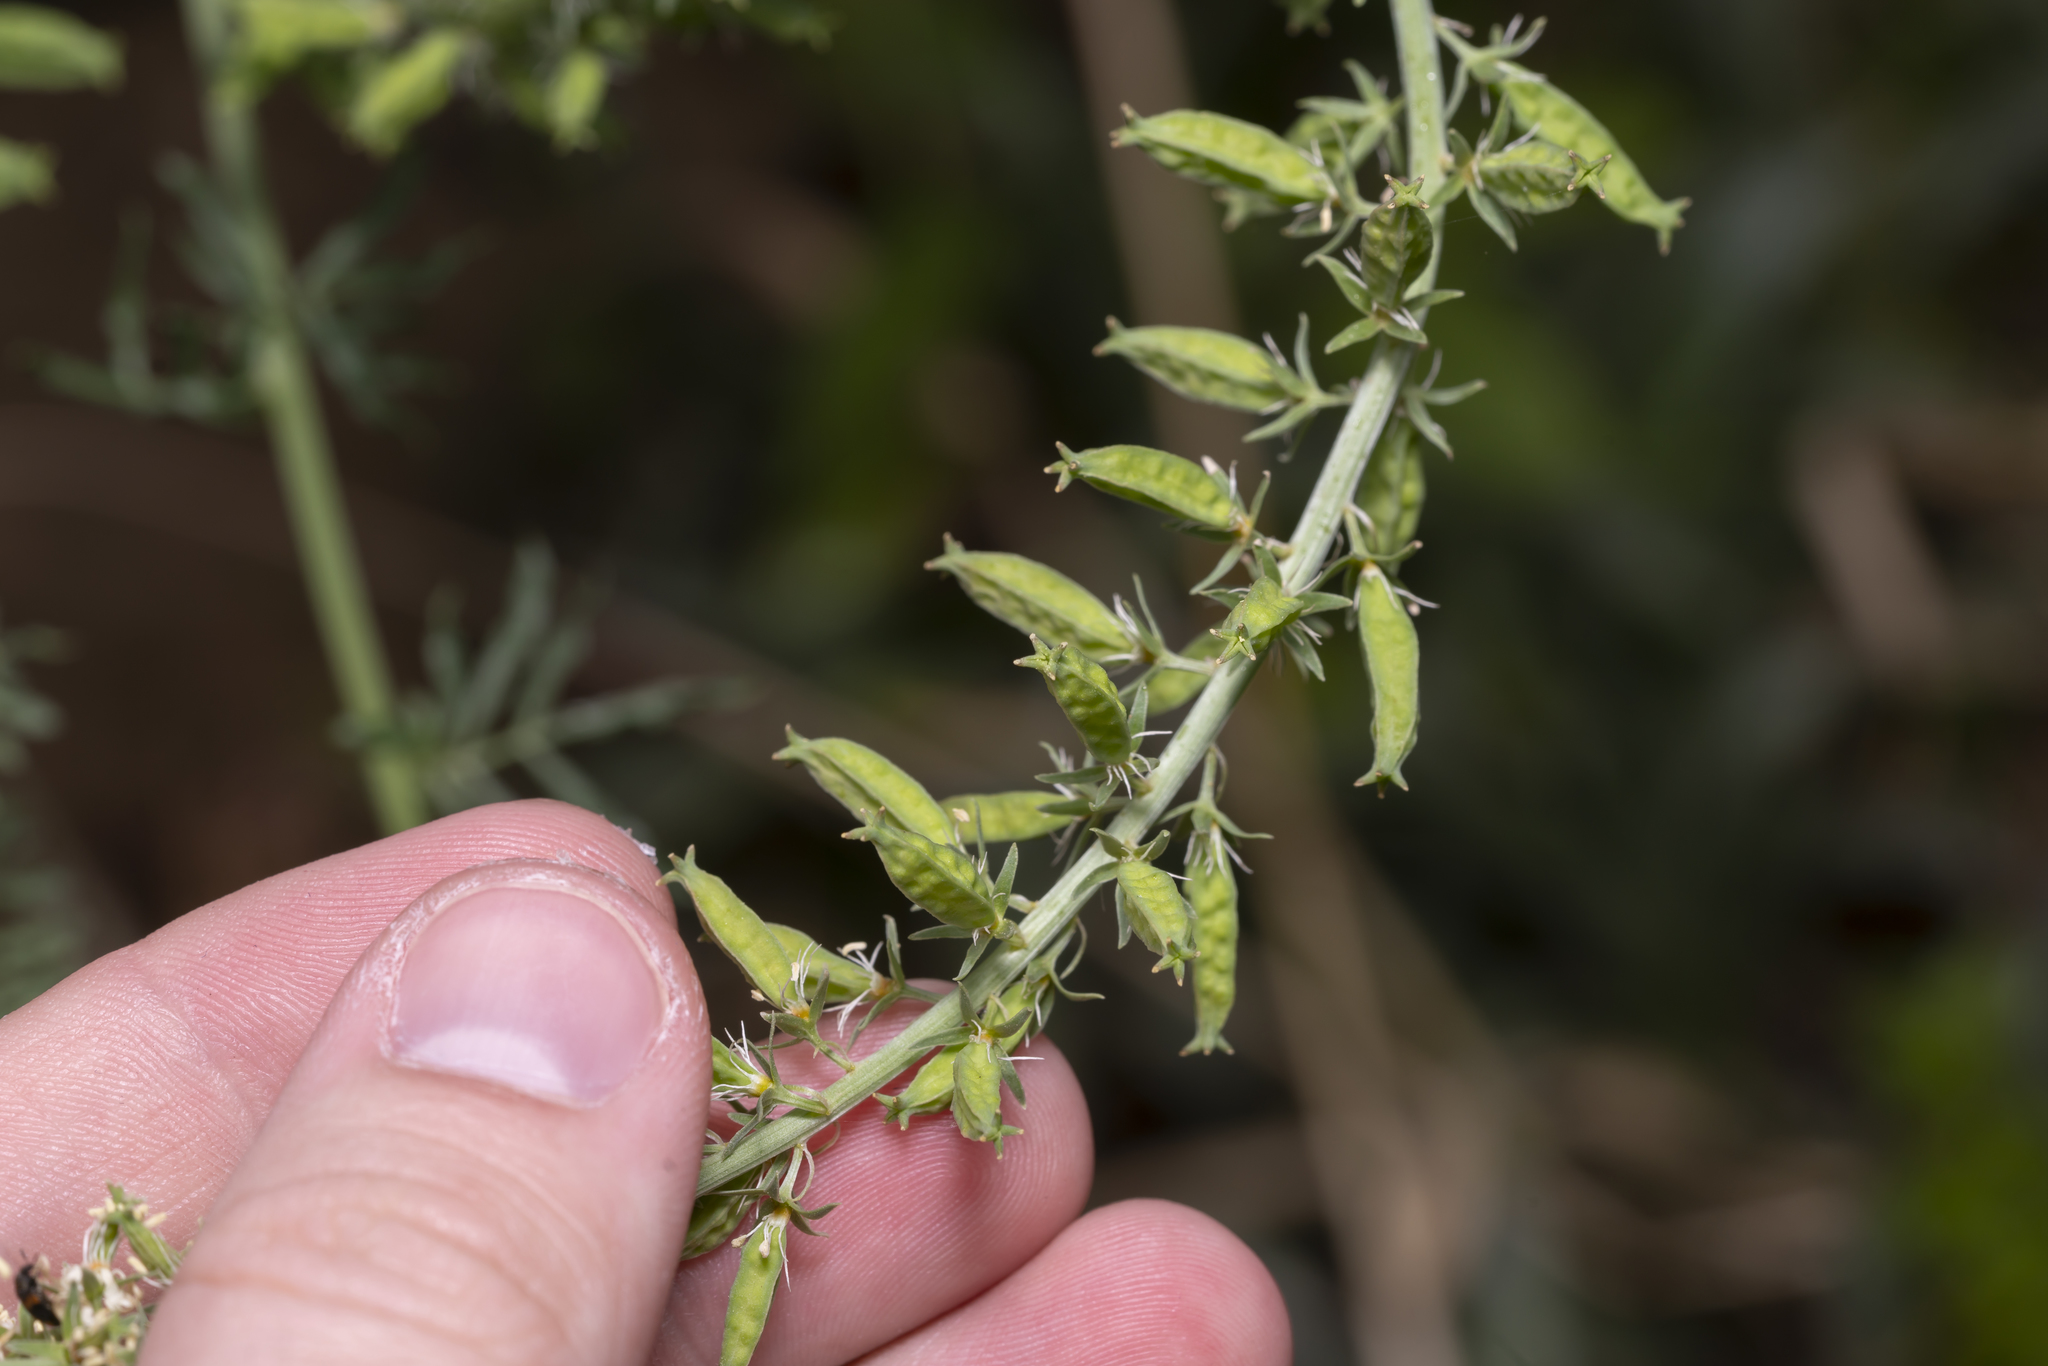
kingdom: Plantae
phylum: Tracheophyta
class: Magnoliopsida
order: Brassicales
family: Resedaceae
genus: Reseda
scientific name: Reseda alba
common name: White mignonette
